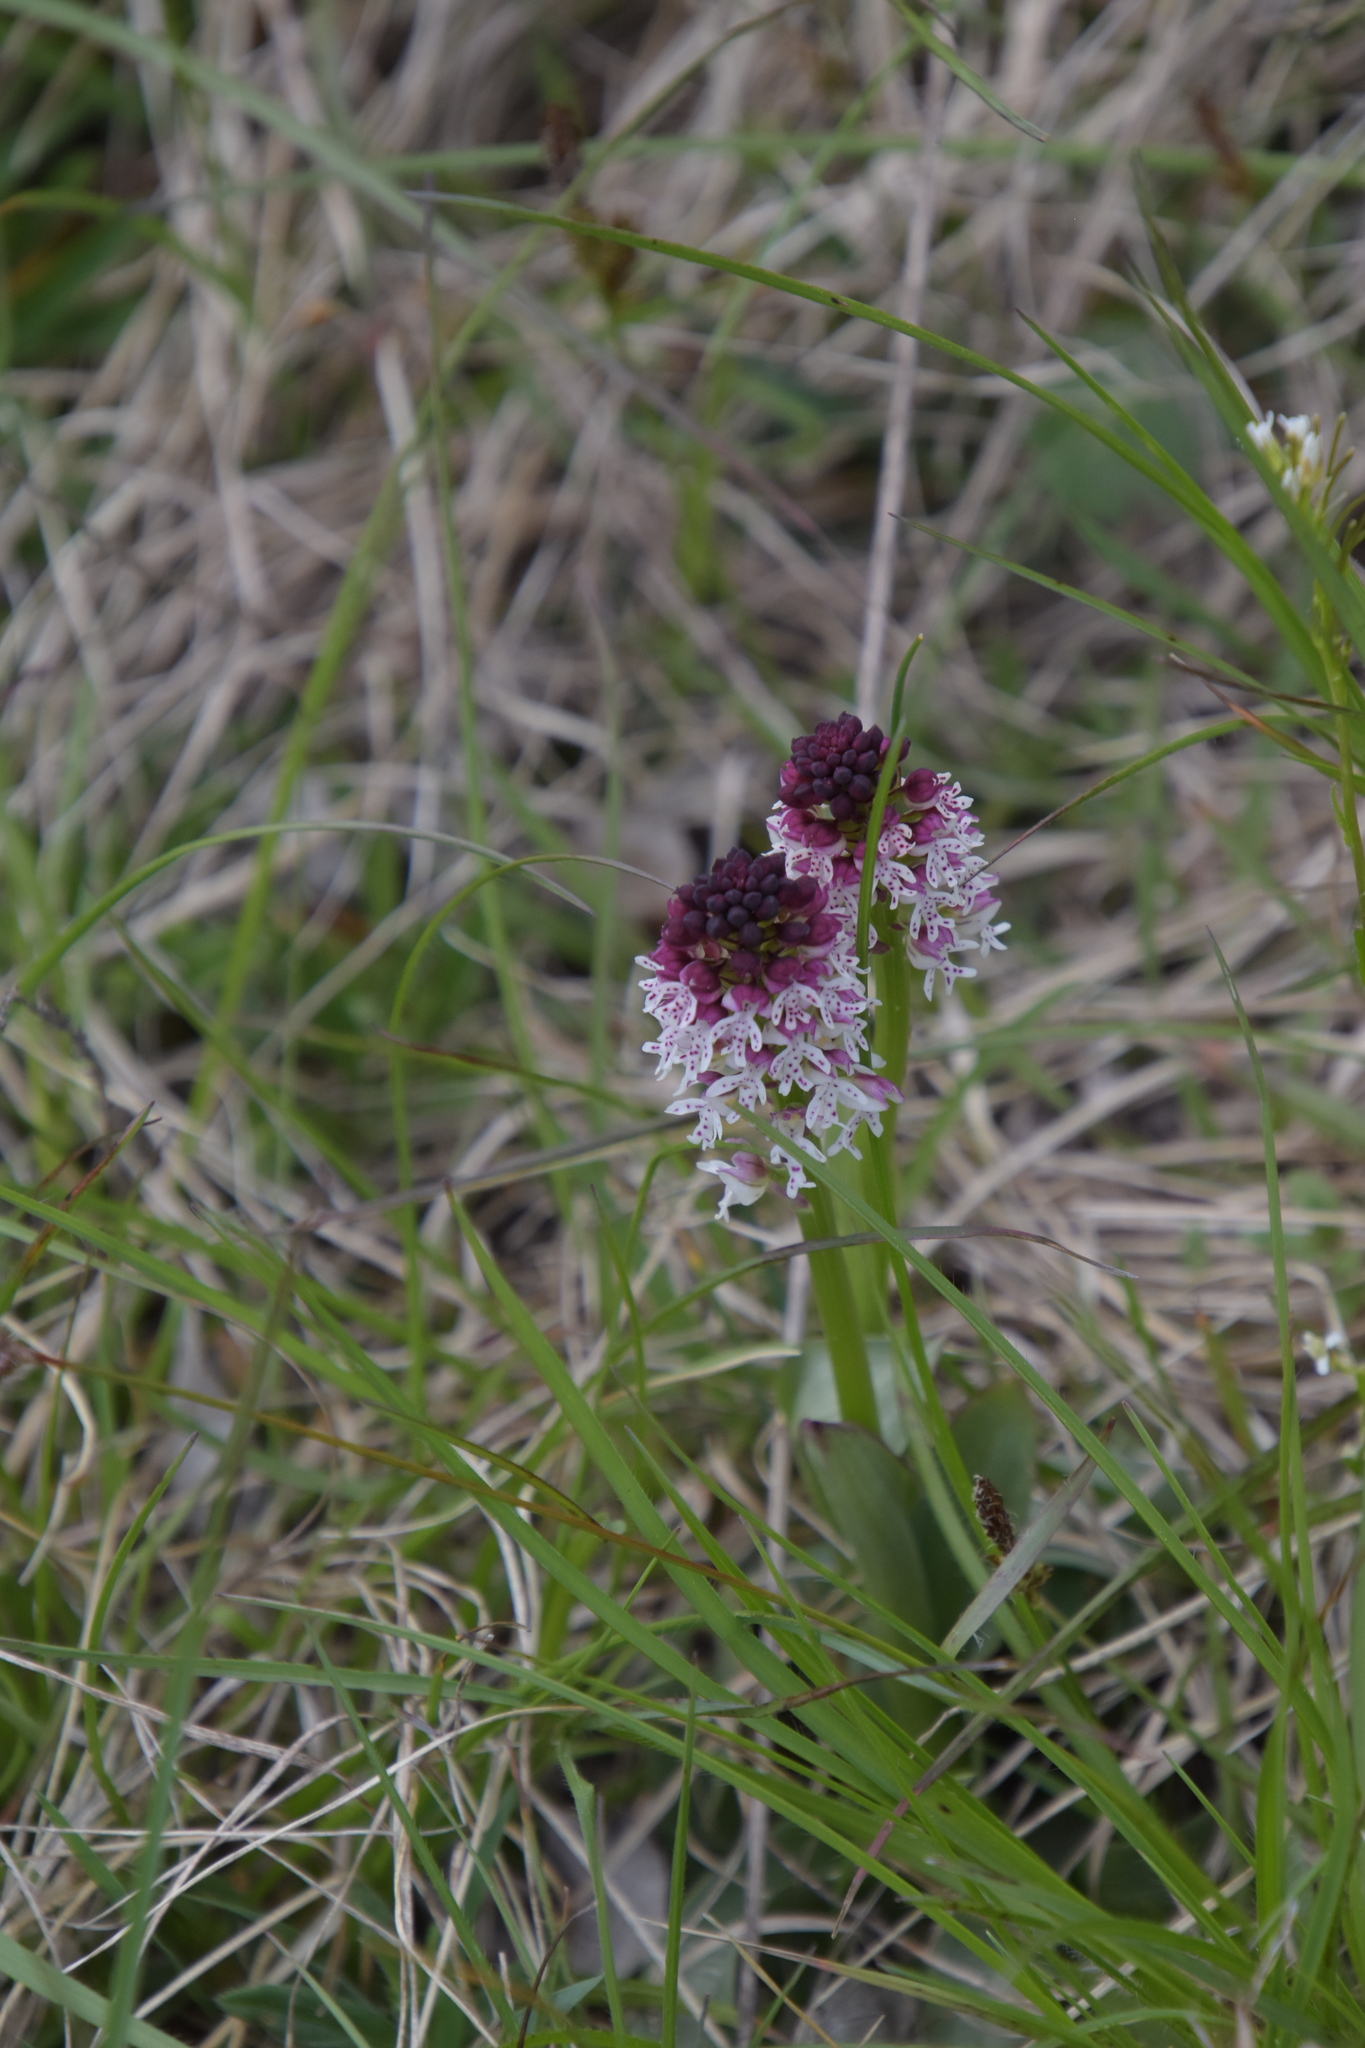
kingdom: Plantae
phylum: Tracheophyta
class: Liliopsida
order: Asparagales
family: Orchidaceae
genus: Neotinea
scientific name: Neotinea ustulata
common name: Burnt orchid
